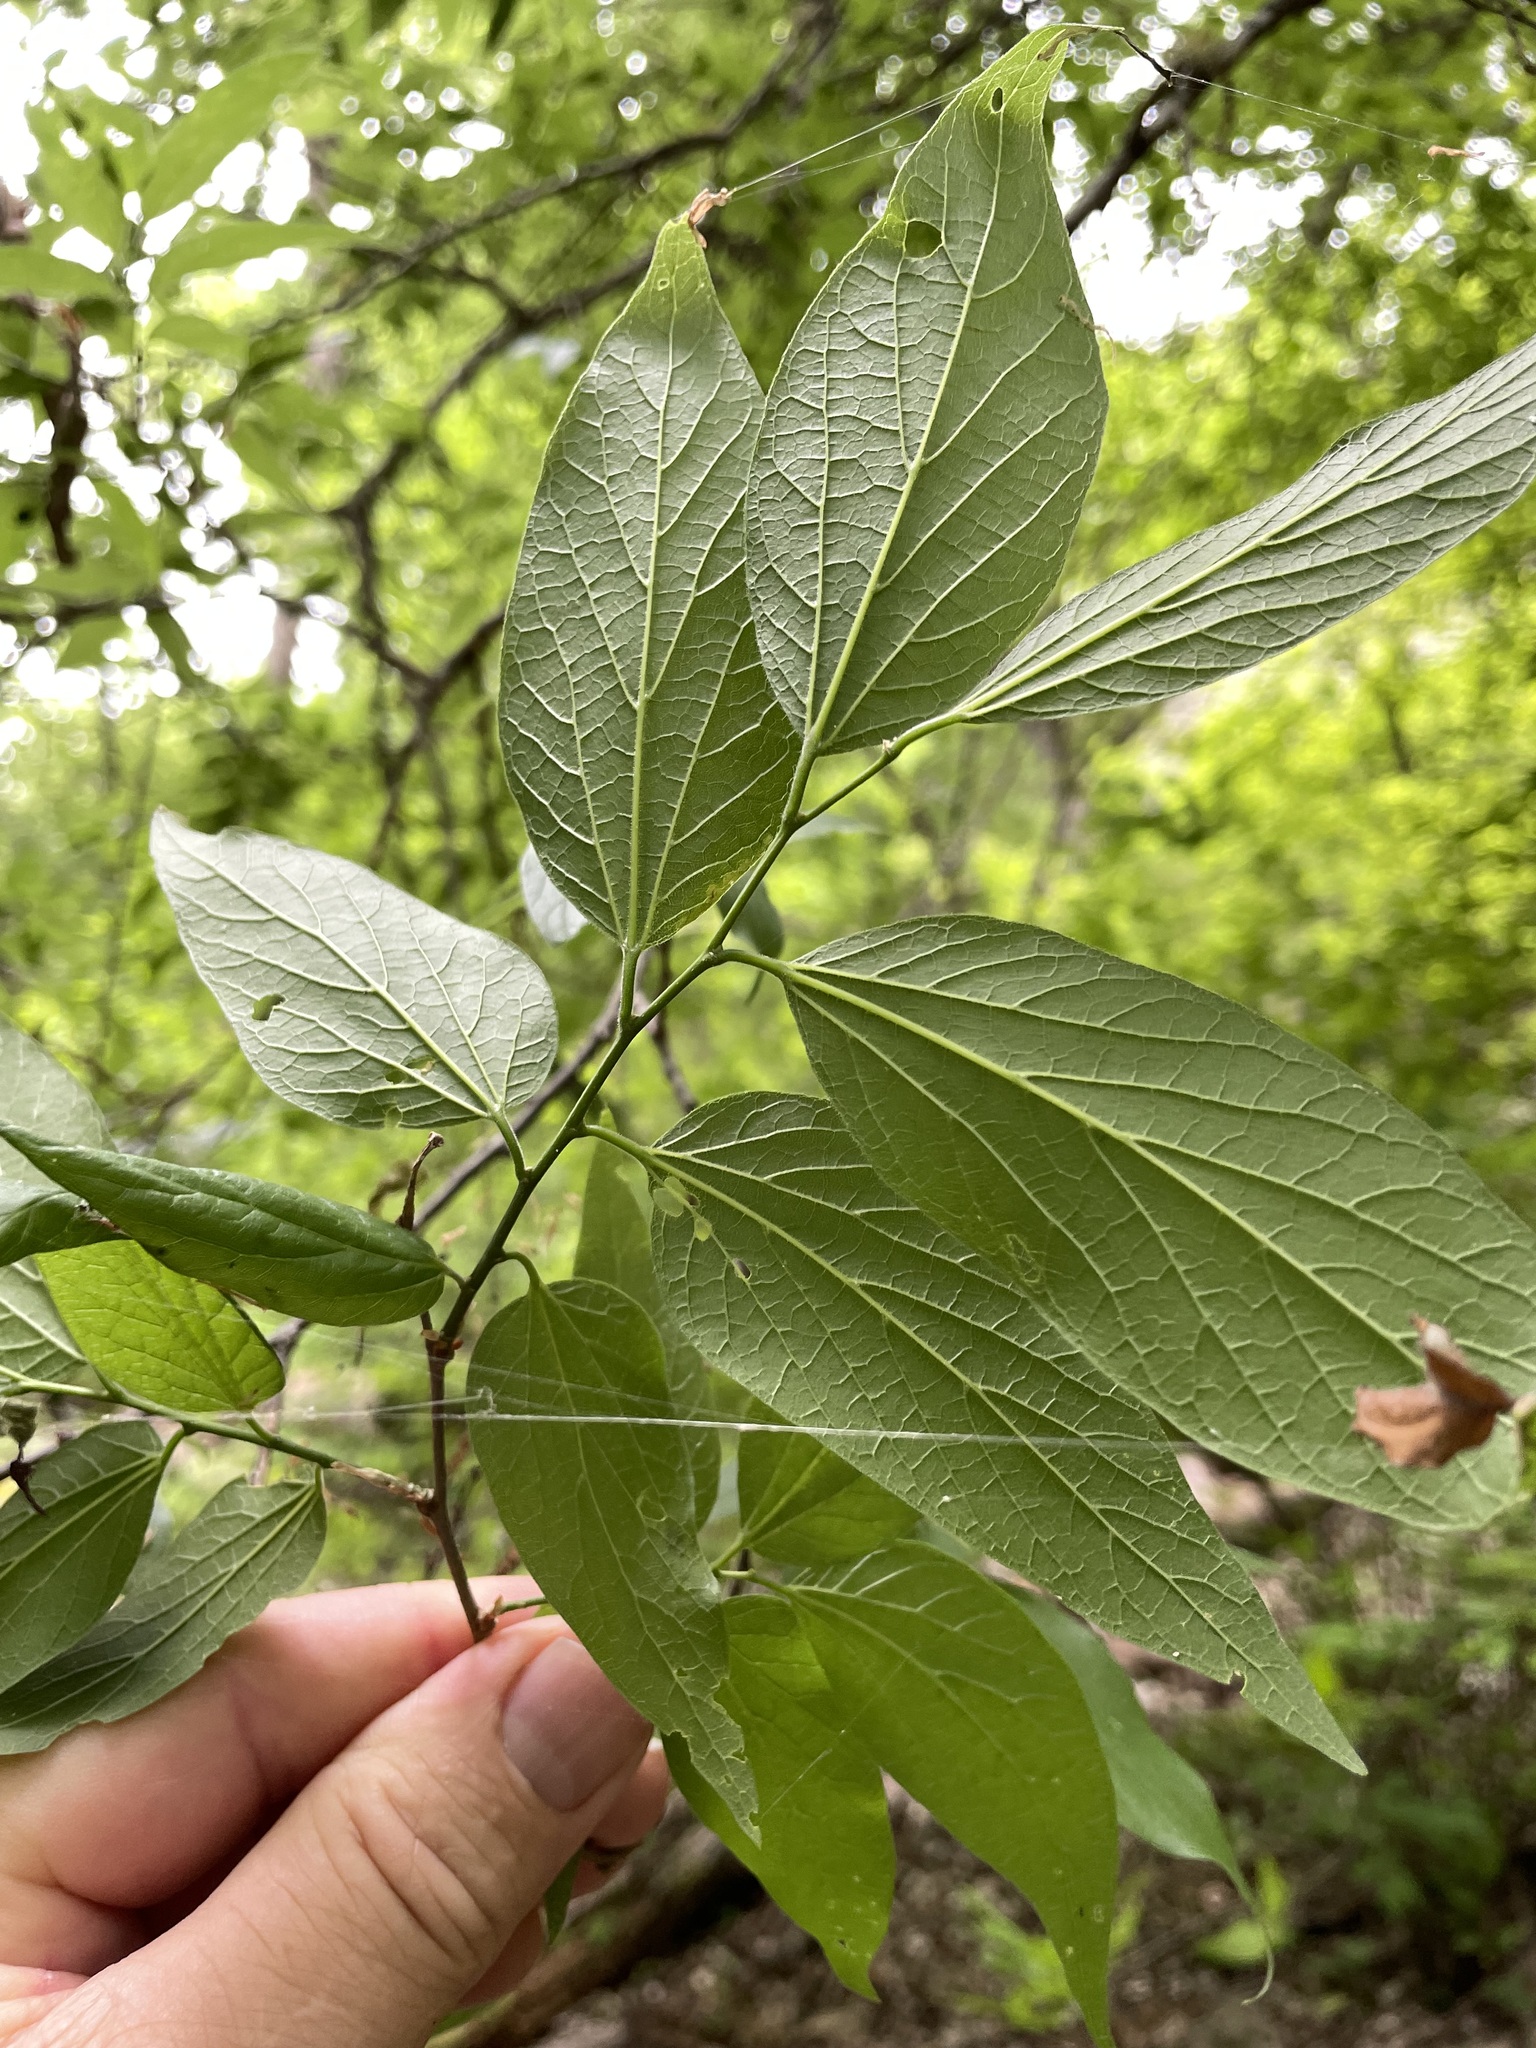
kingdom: Plantae
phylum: Tracheophyta
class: Magnoliopsida
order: Rosales
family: Cannabaceae
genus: Celtis
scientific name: Celtis laevigata
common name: Sugarberry
